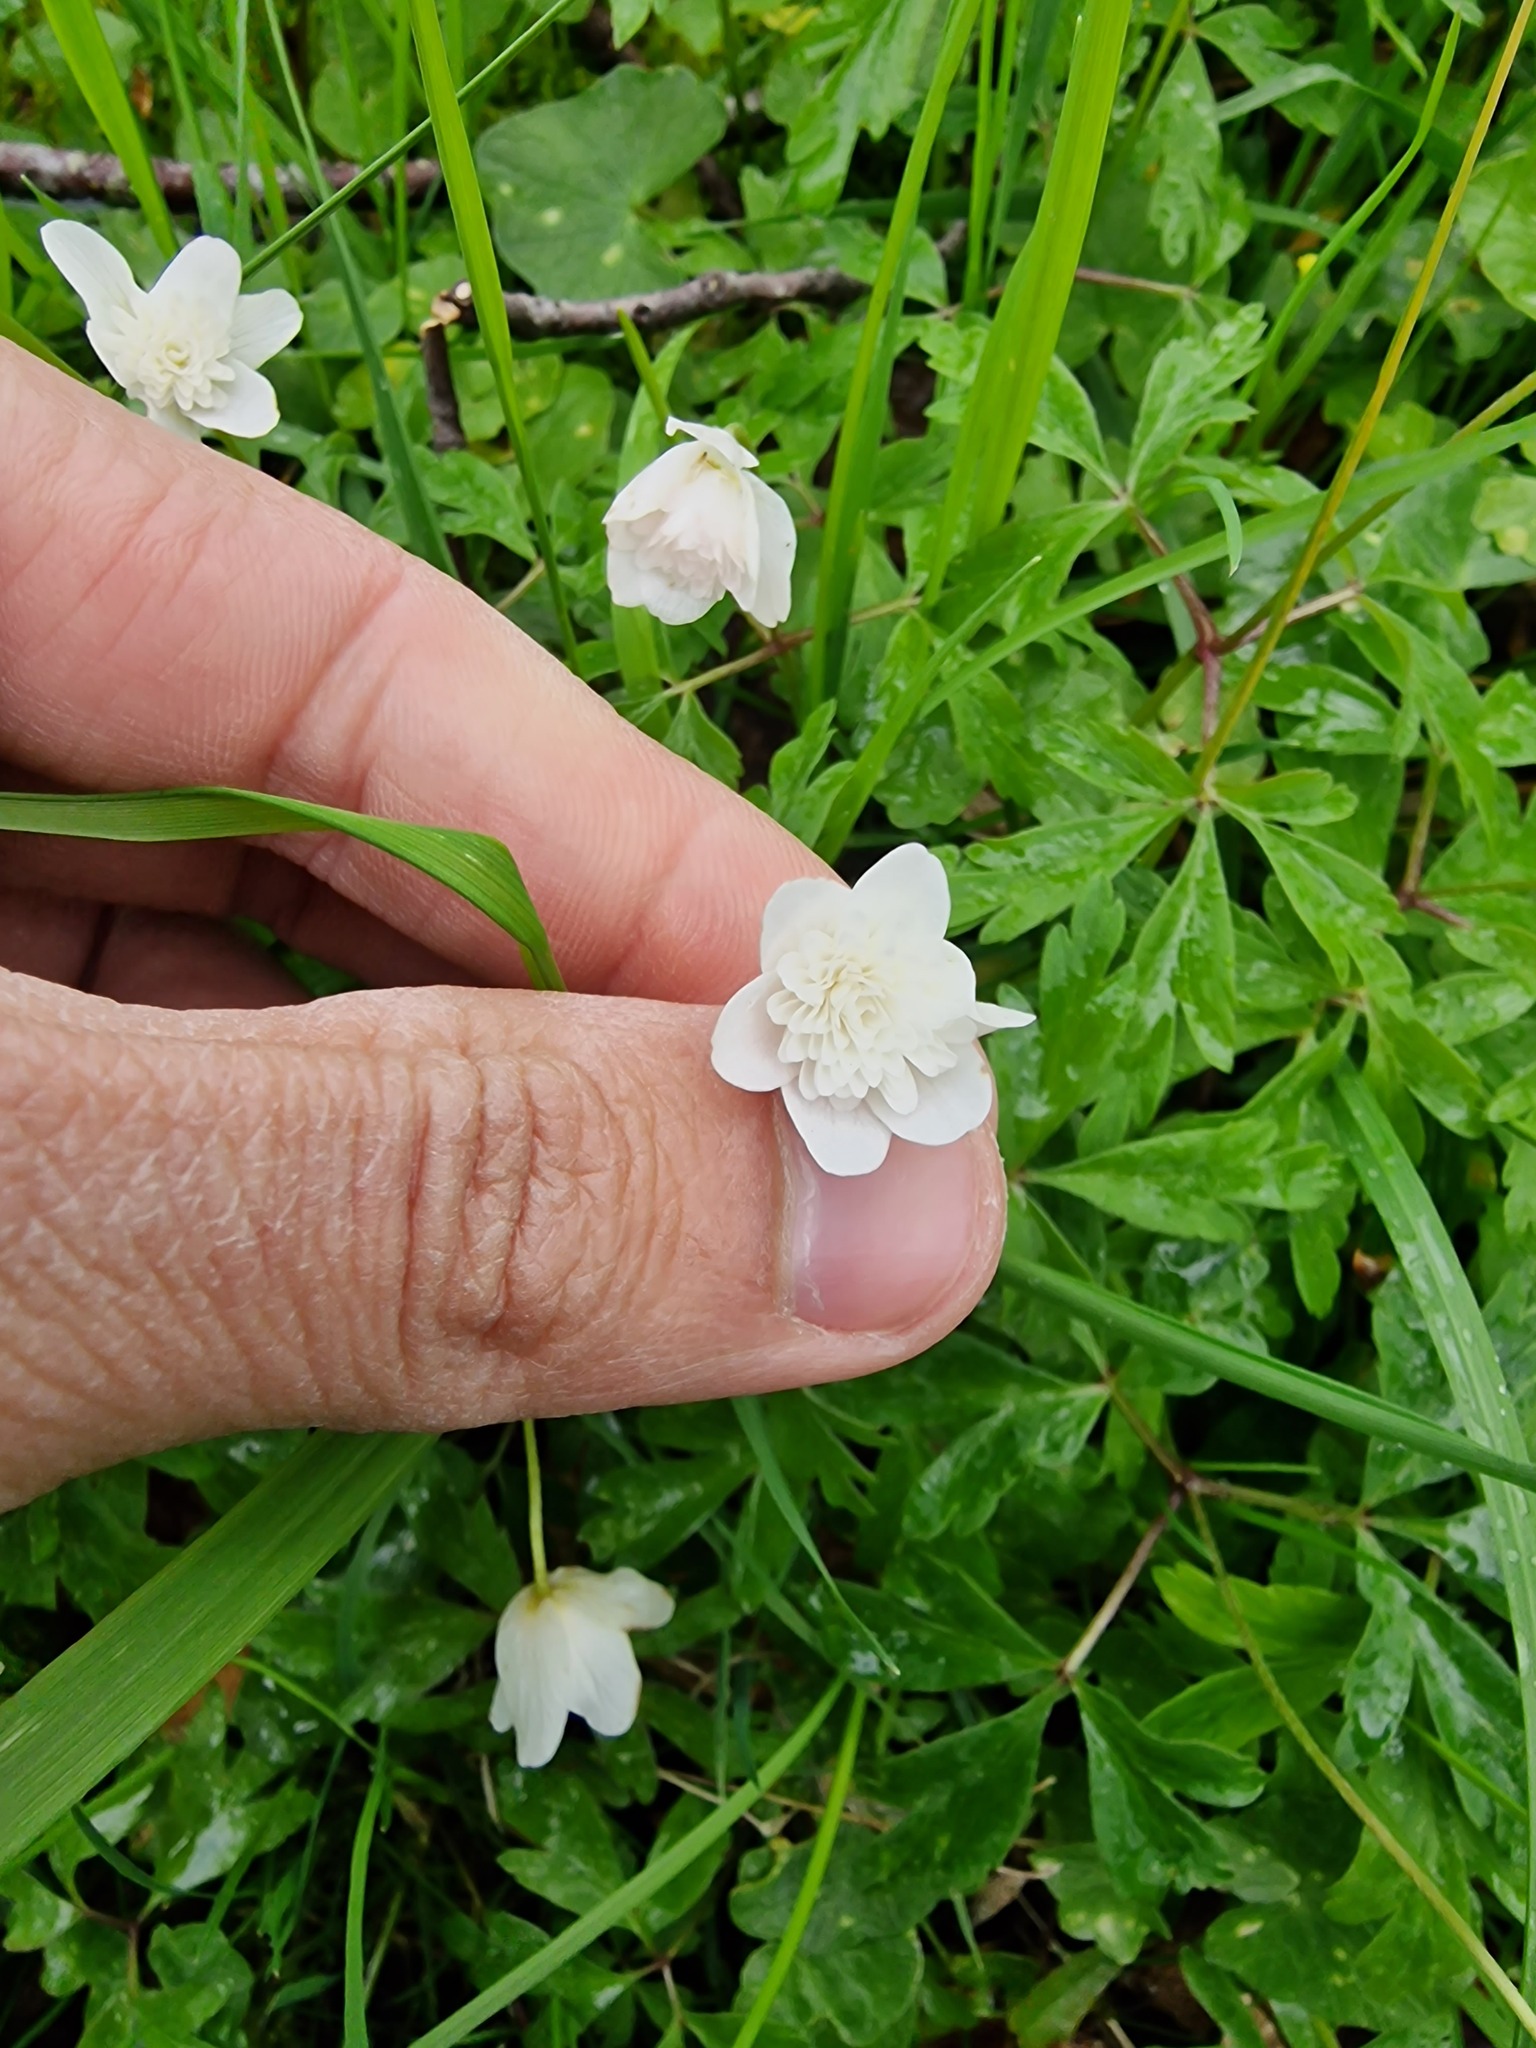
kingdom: Plantae
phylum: Tracheophyta
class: Magnoliopsida
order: Ranunculales
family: Ranunculaceae
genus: Anemone
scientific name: Anemone nemorosa
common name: Wood anemone
